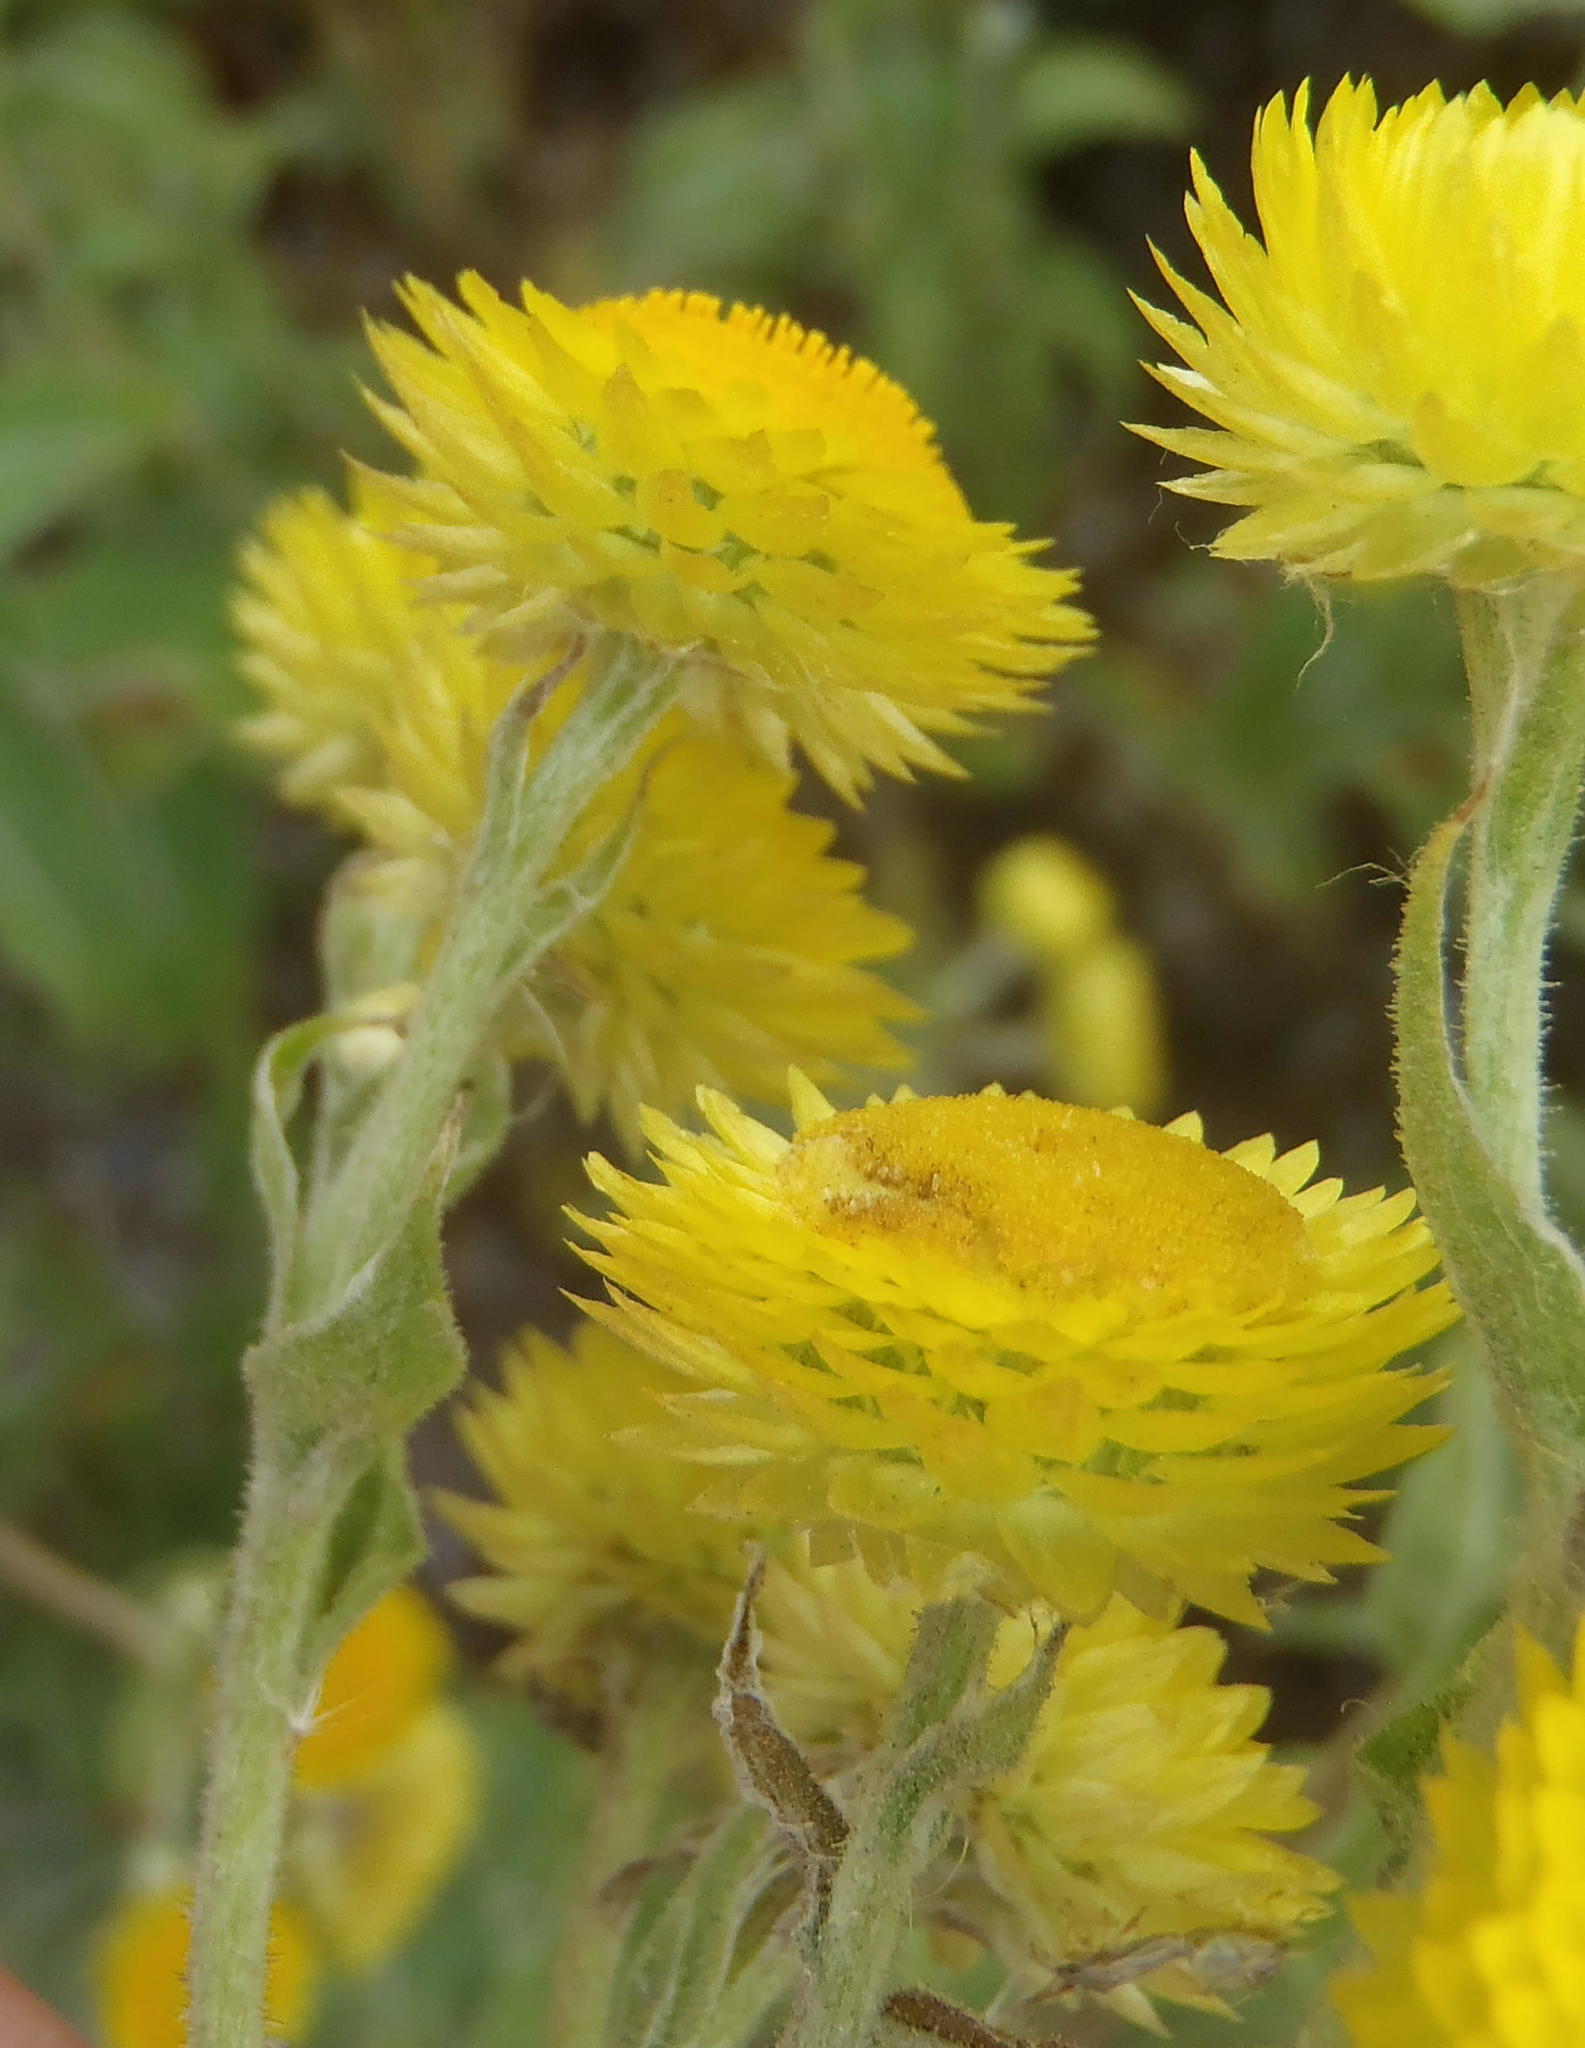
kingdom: Plantae
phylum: Tracheophyta
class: Magnoliopsida
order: Asterales
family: Asteraceae
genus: Helichrysum
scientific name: Helichrysum foetidum
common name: Stinking everlasting
